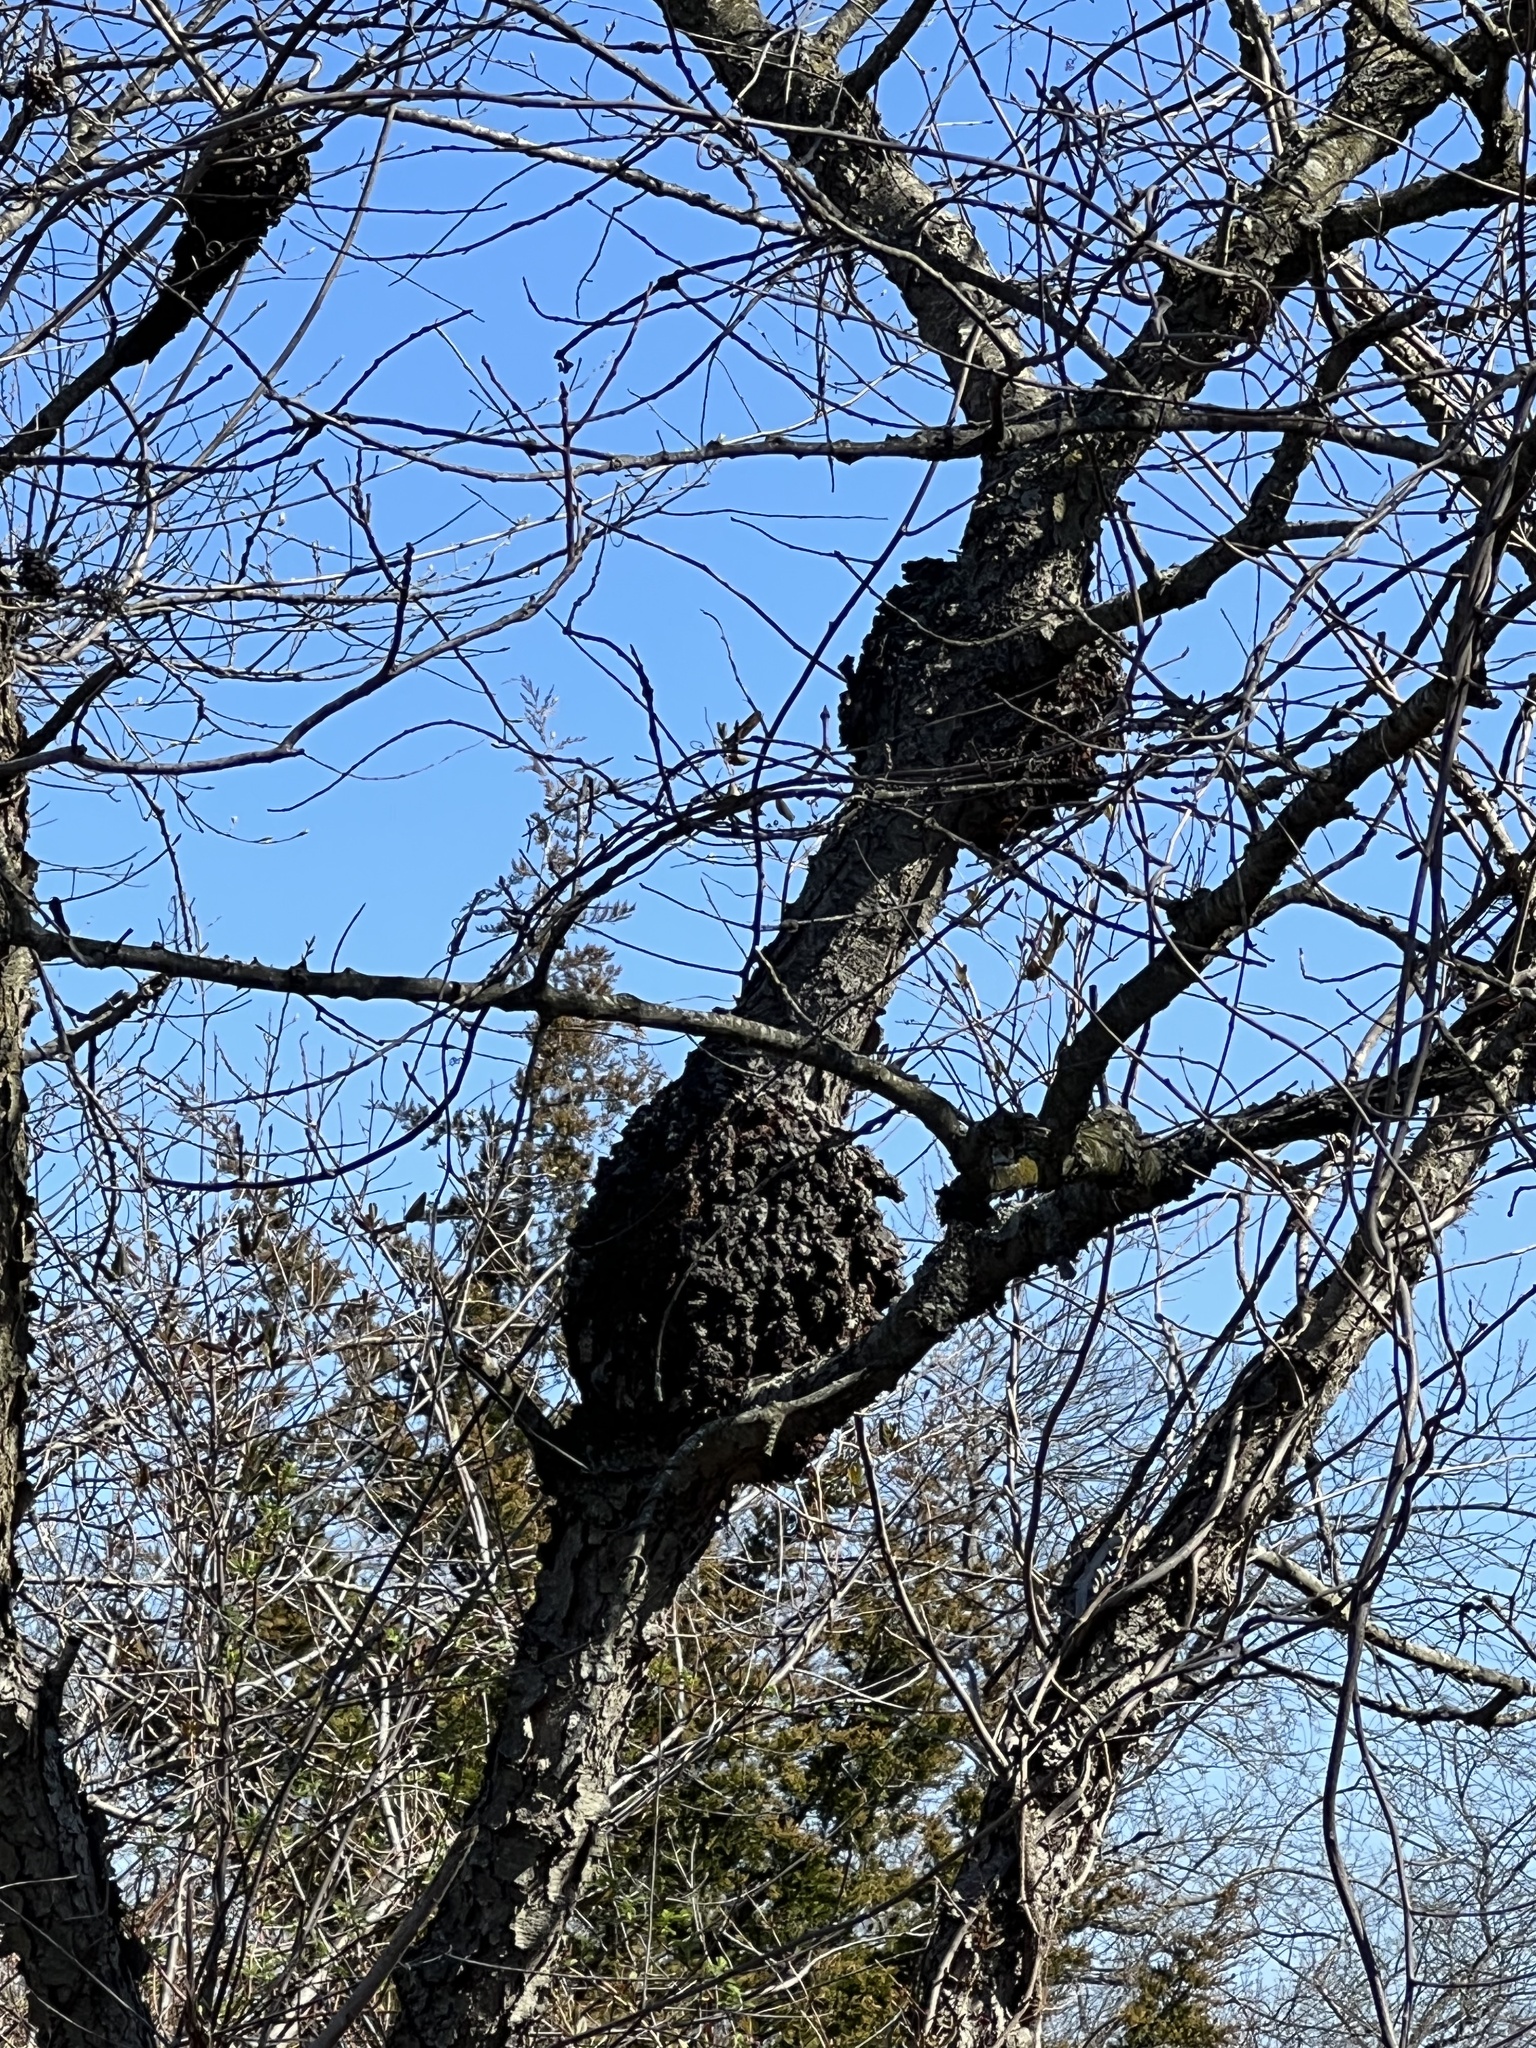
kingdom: Fungi
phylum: Ascomycota
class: Dothideomycetes
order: Venturiales
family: Venturiaceae
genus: Apiosporina
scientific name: Apiosporina morbosa
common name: Black knot
